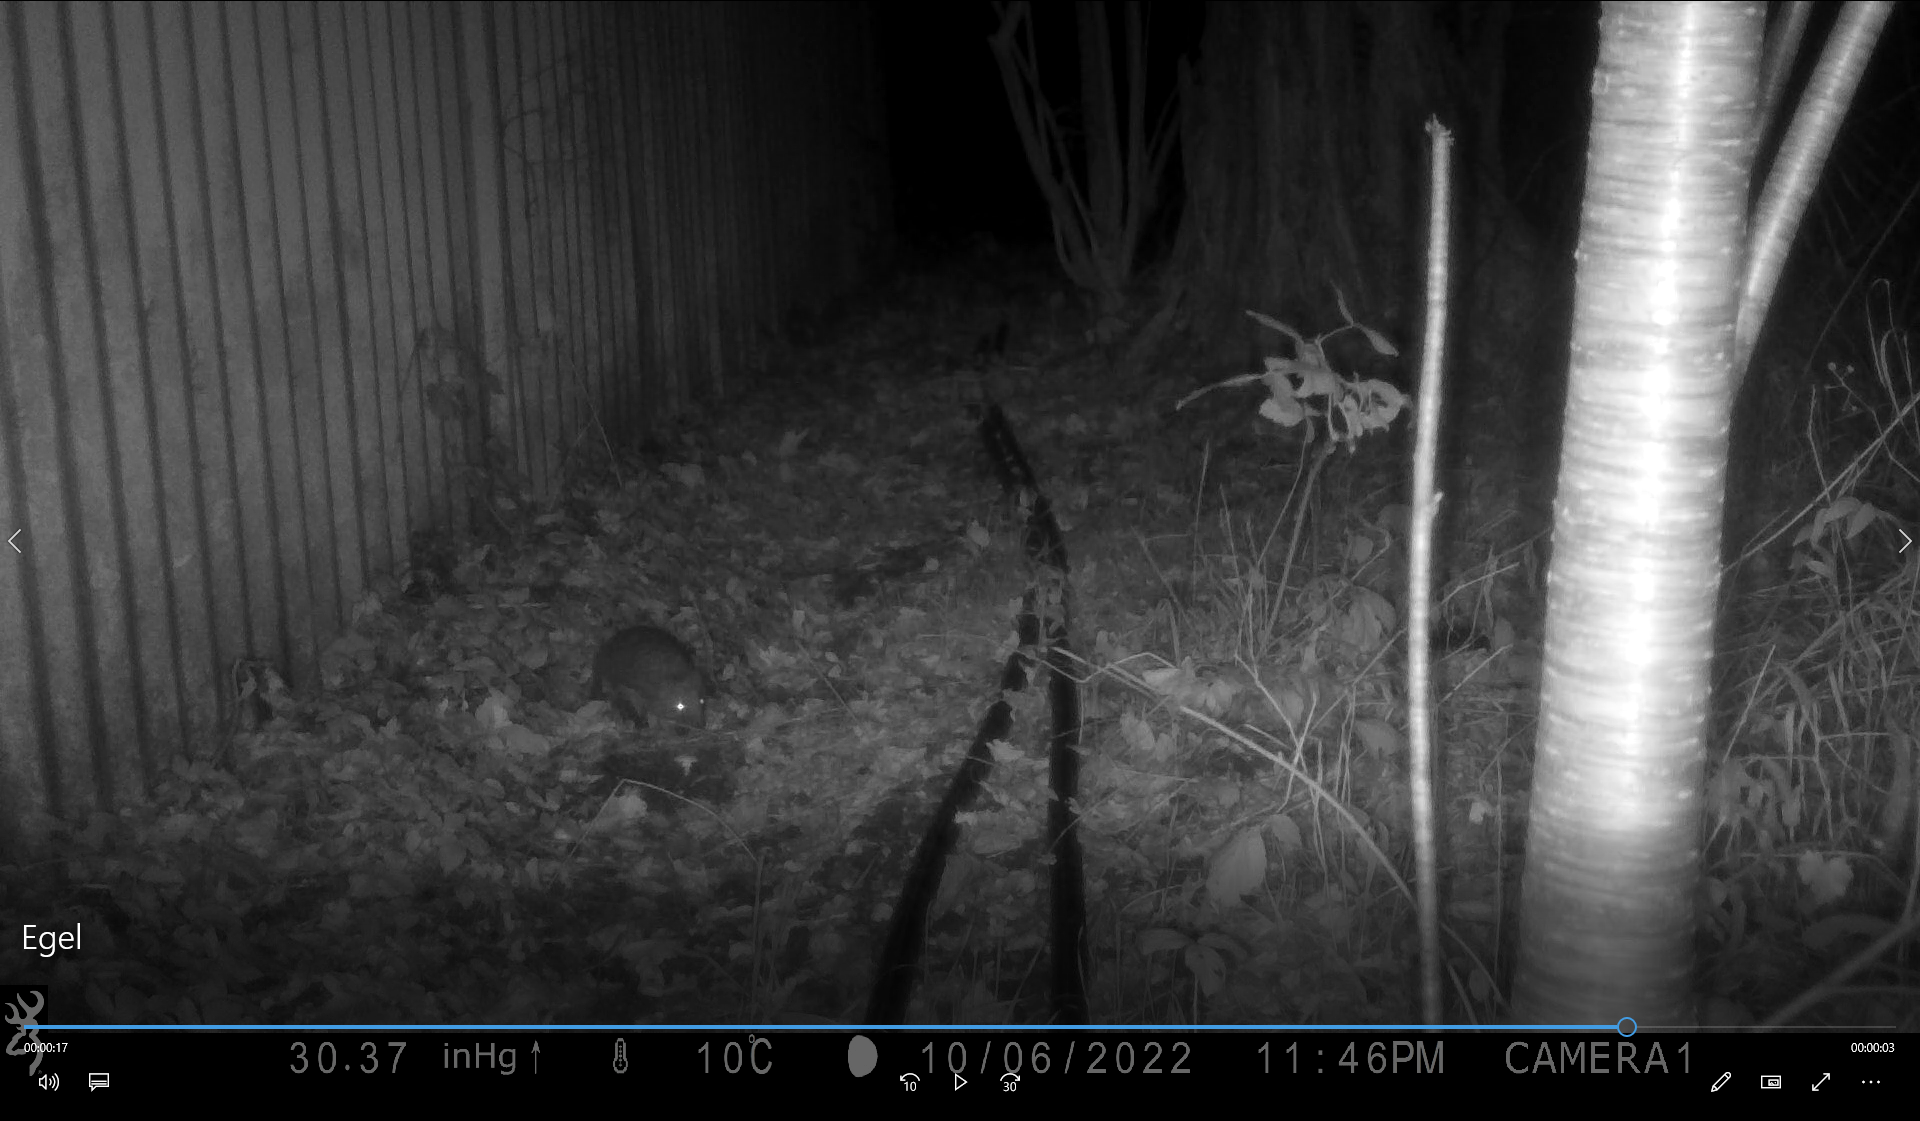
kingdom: Animalia
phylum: Chordata
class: Mammalia
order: Erinaceomorpha
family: Erinaceidae
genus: Erinaceus
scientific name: Erinaceus europaeus
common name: West european hedgehog
